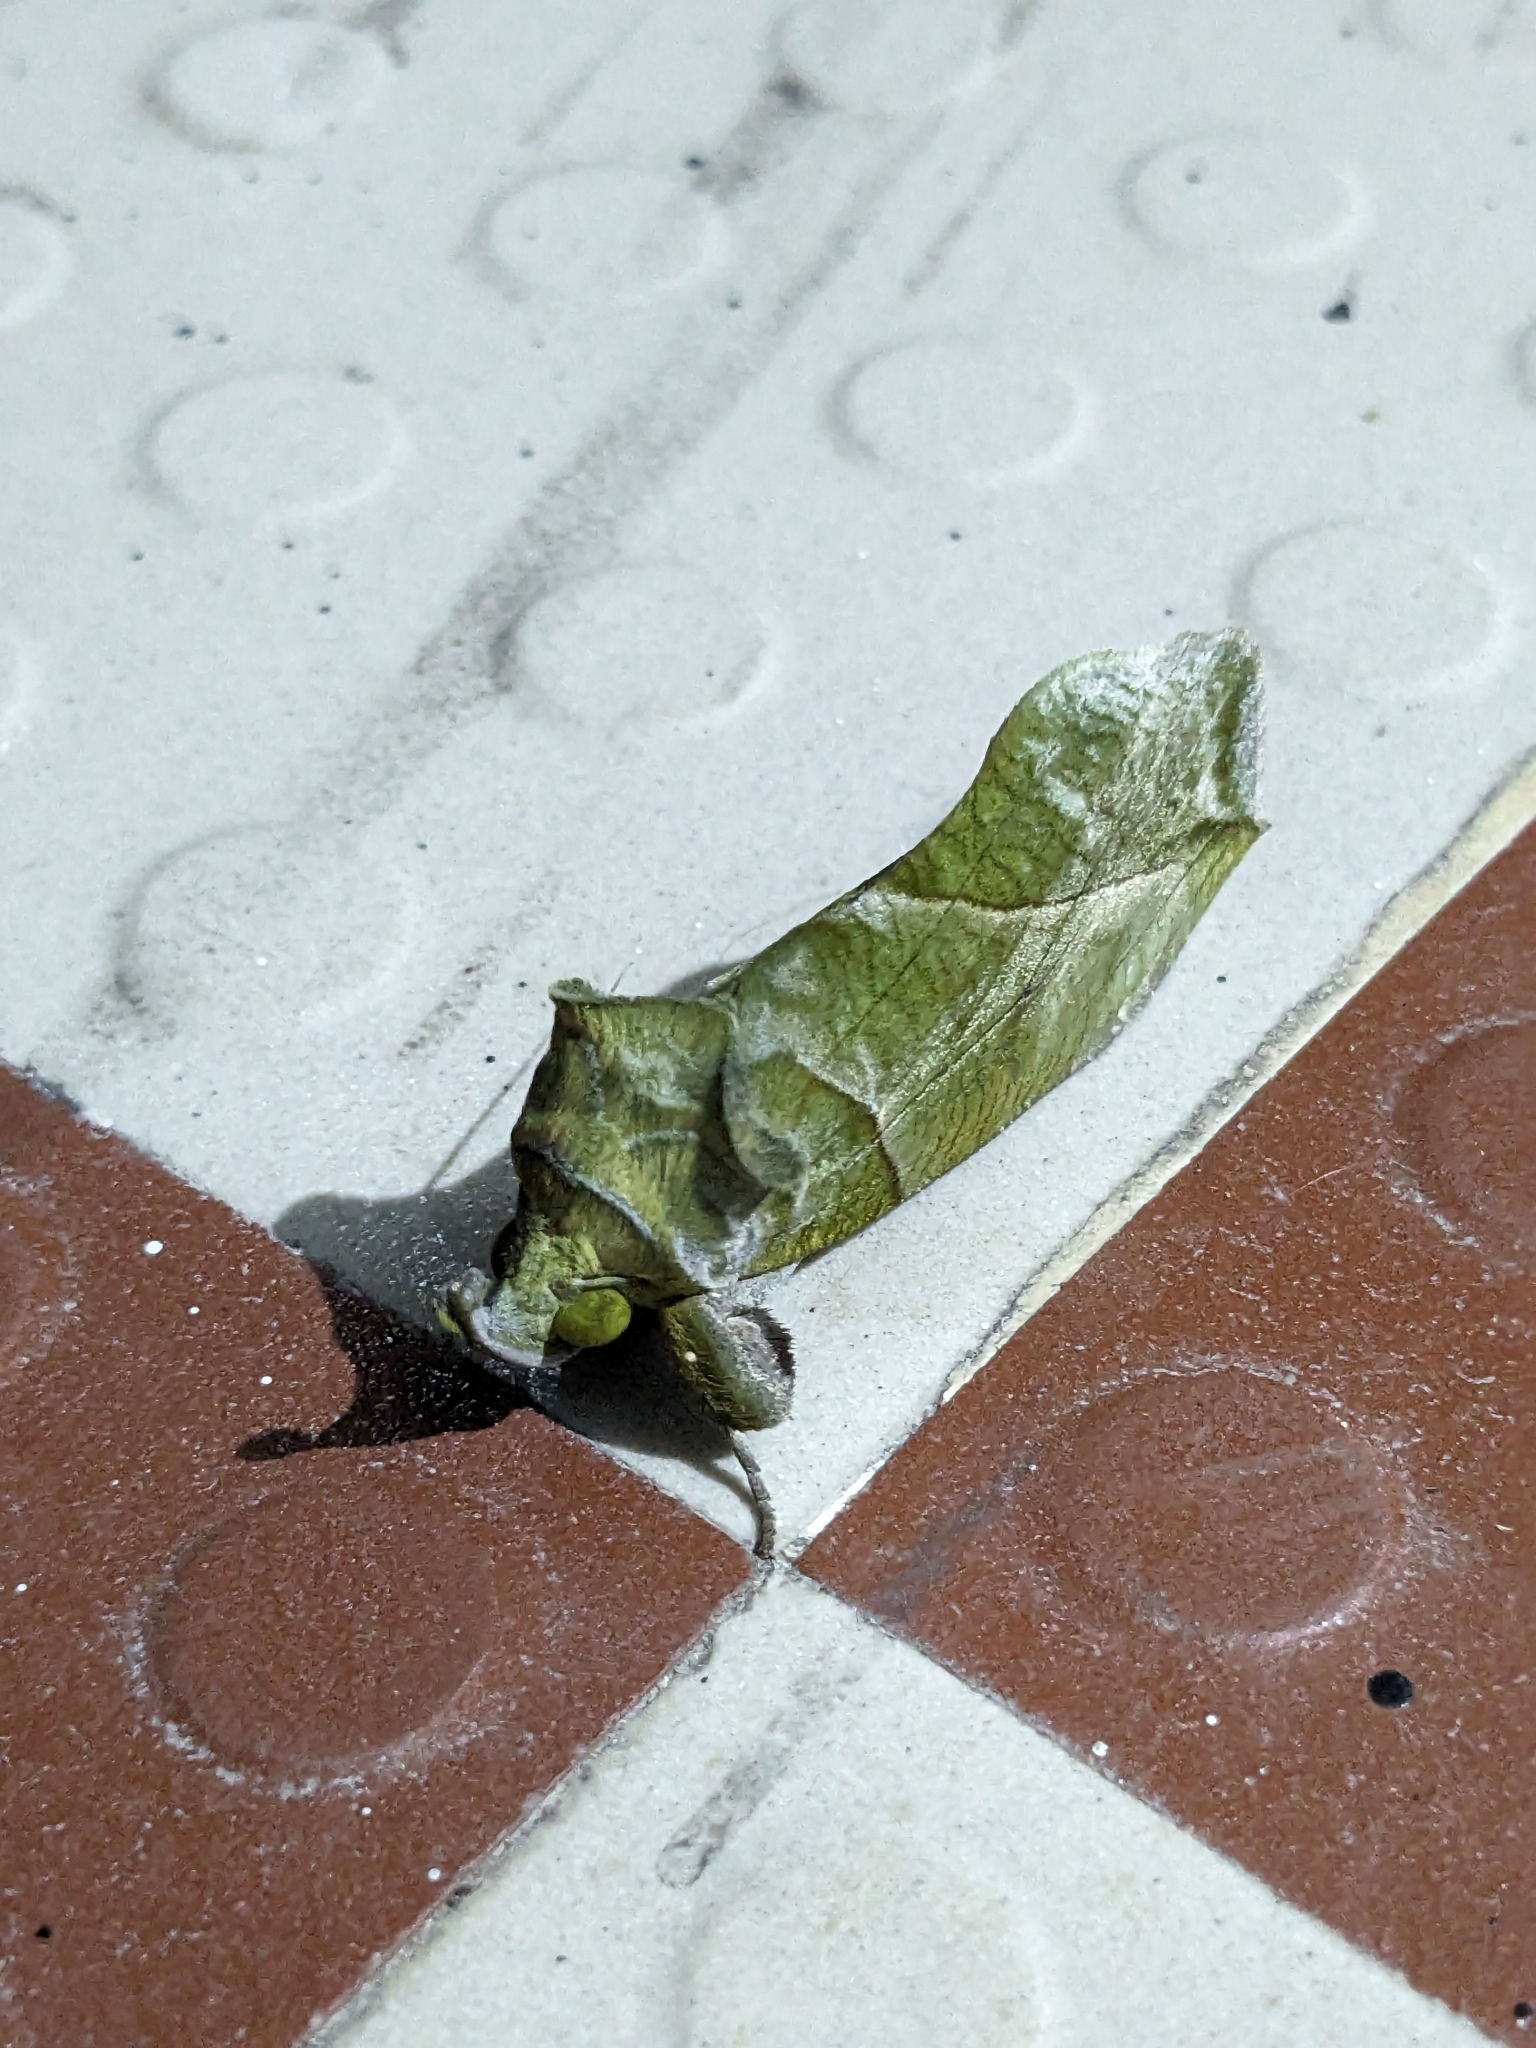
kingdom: Animalia
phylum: Arthropoda
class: Insecta
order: Lepidoptera
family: Erebidae
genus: Eudocima
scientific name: Eudocima hypermnestra
